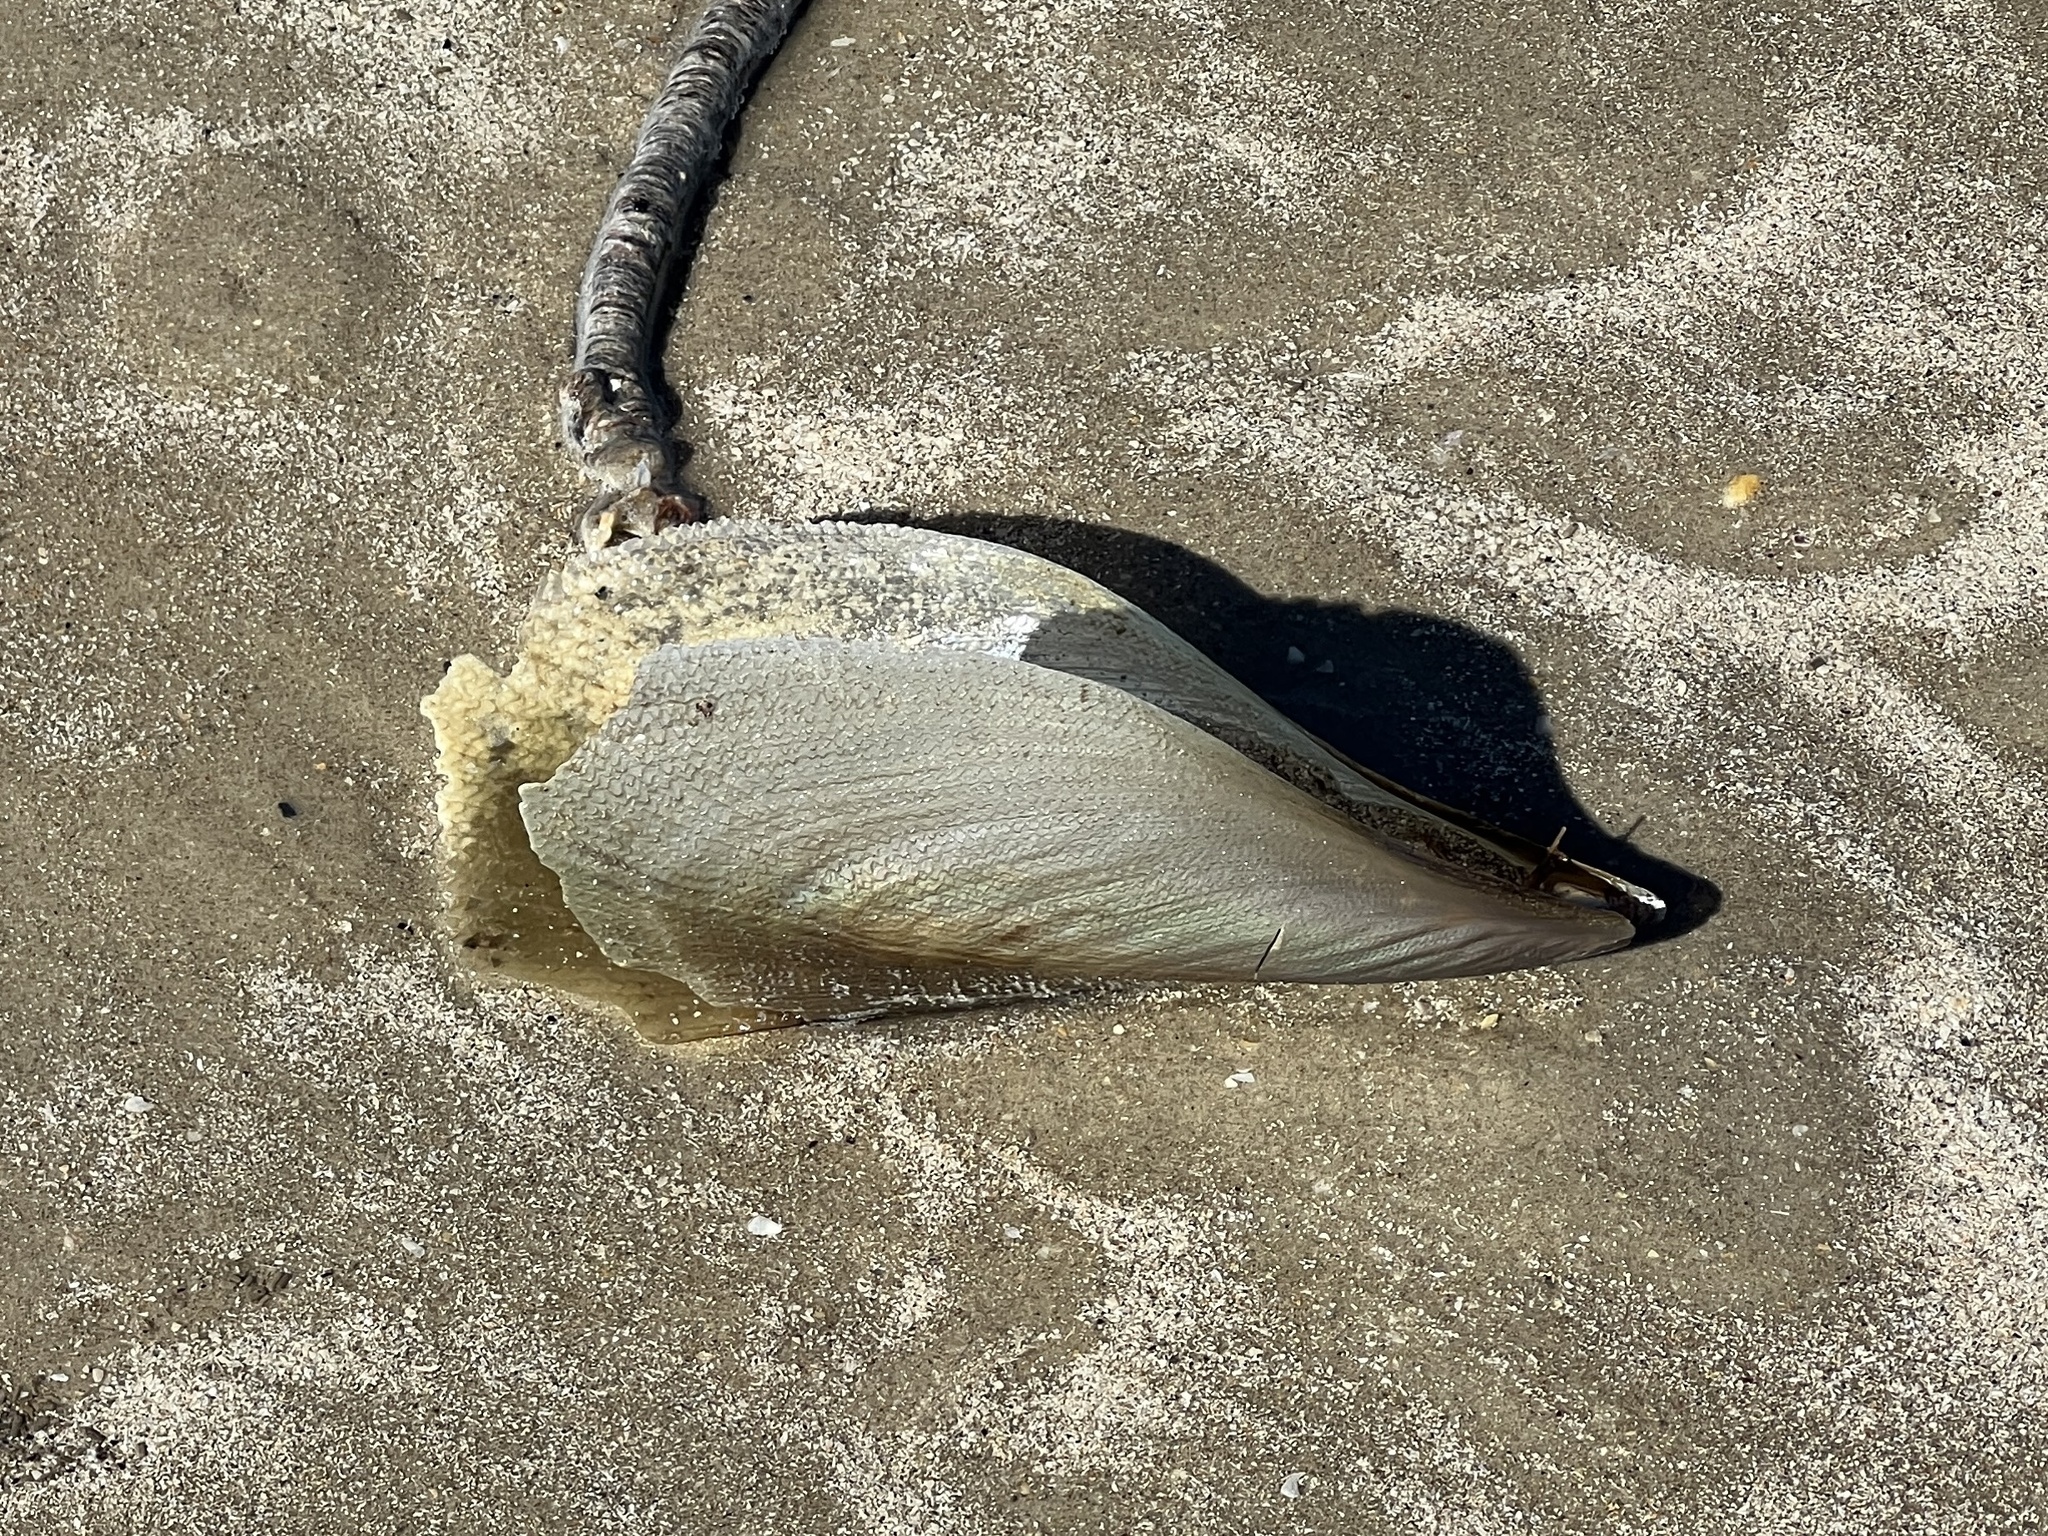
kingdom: Animalia
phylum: Mollusca
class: Bivalvia
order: Ostreida
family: Pinnidae
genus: Atrina
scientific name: Atrina serrata
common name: Saw-toothed penshell
